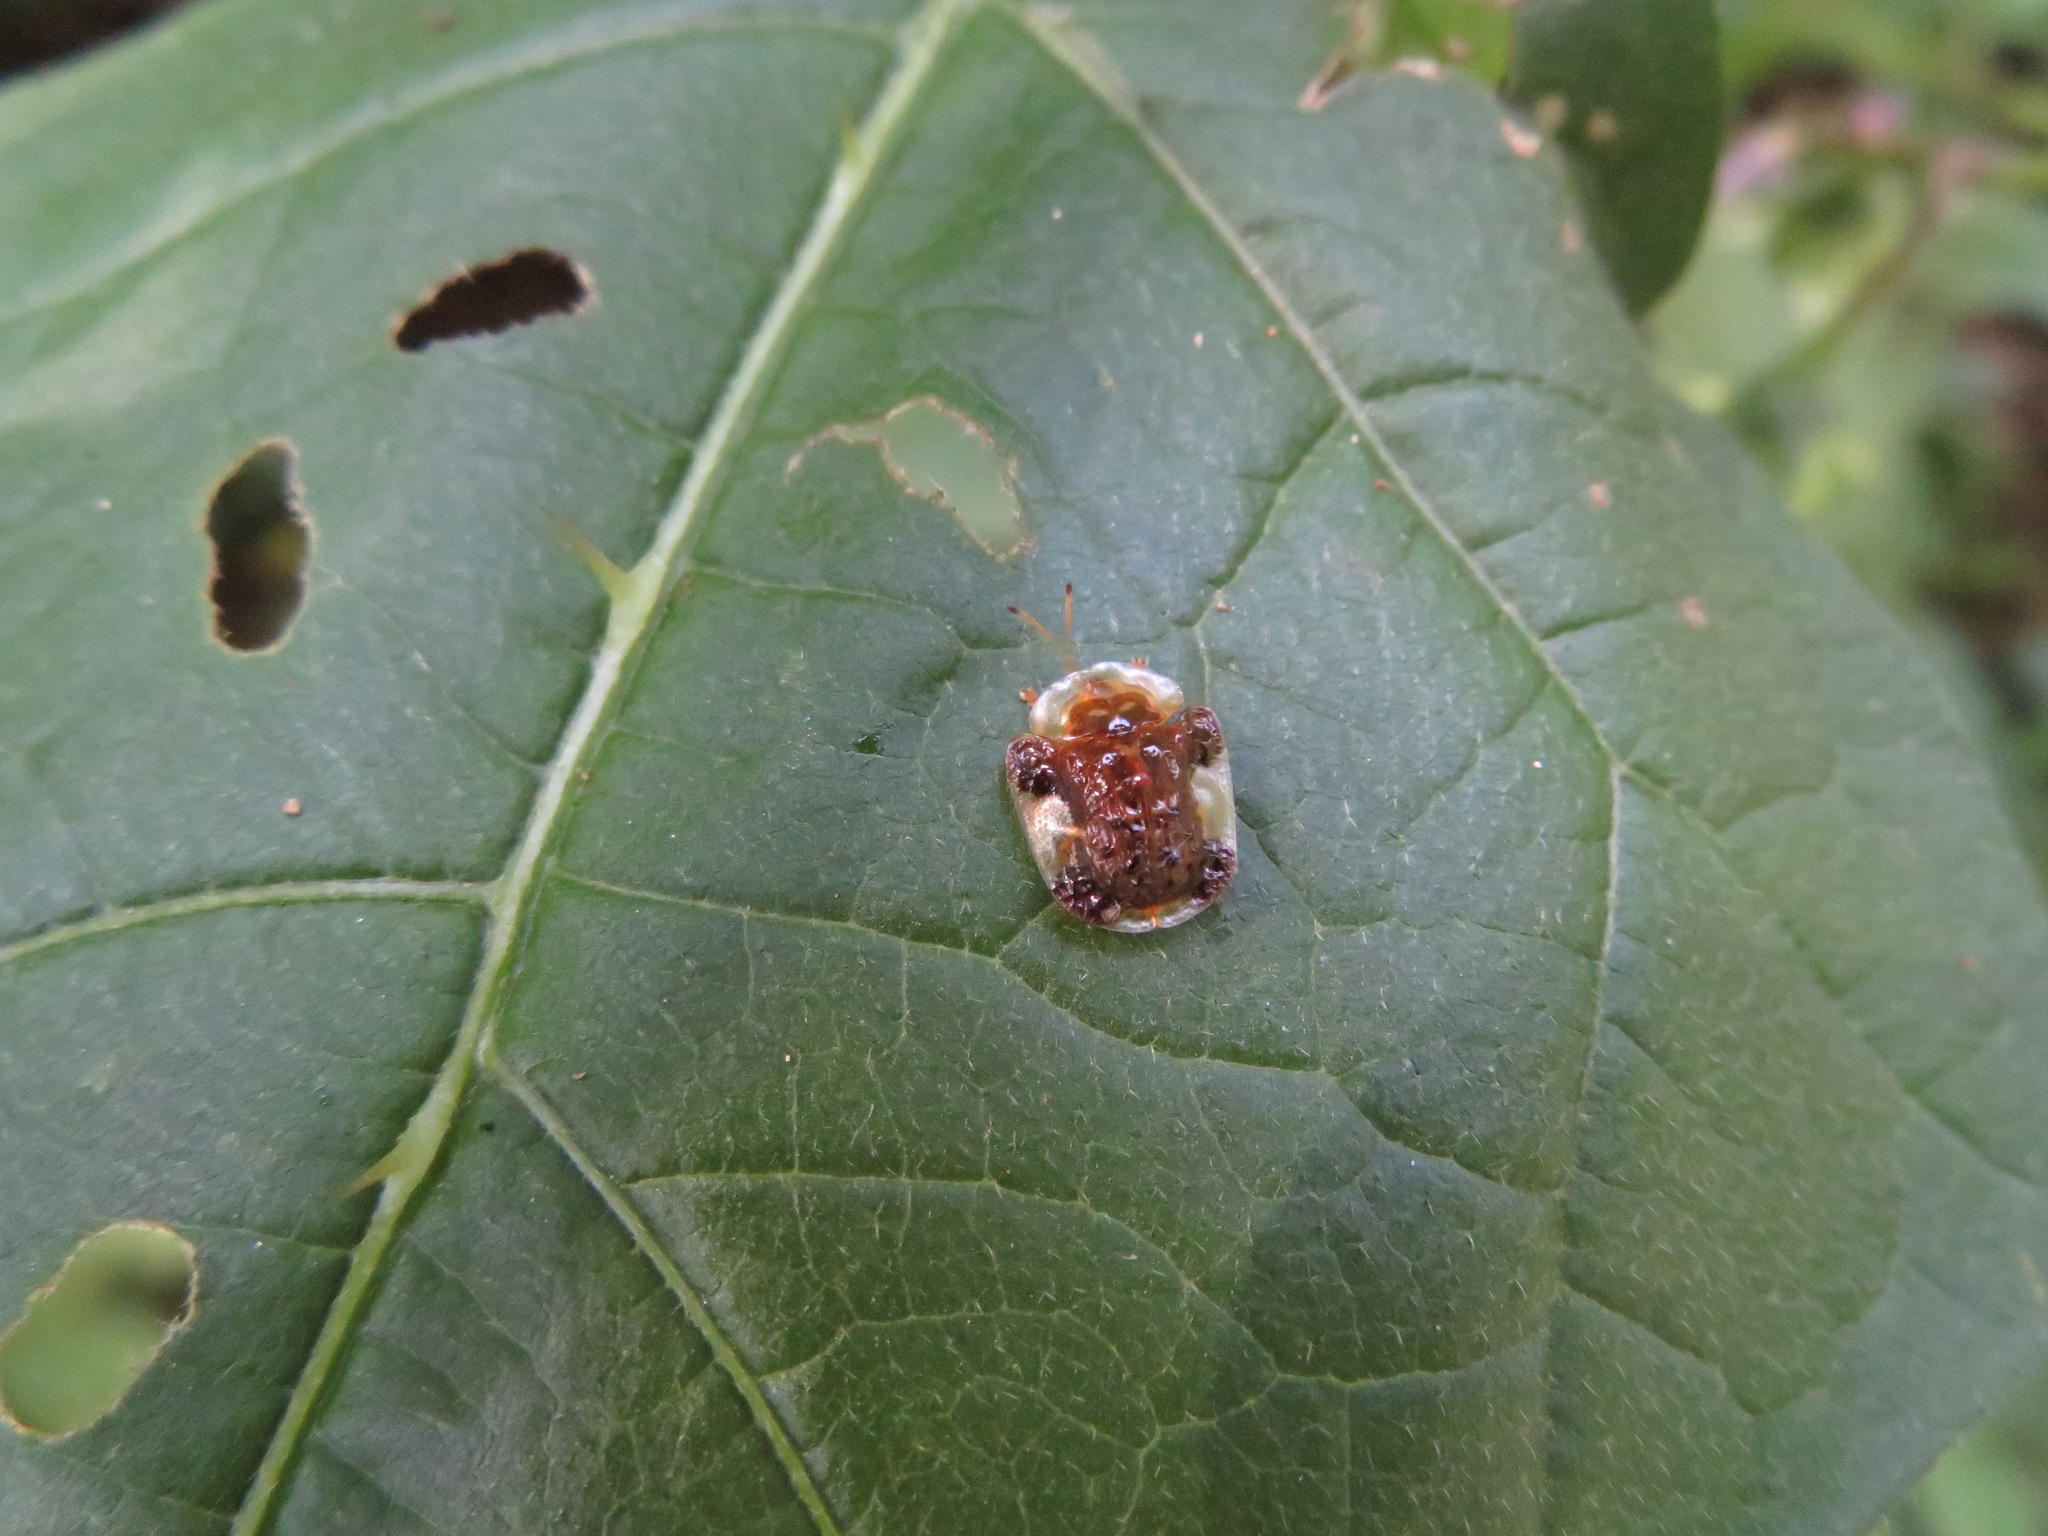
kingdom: Animalia
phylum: Arthropoda
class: Insecta
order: Coleoptera
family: Chrysomelidae
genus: Helocassis
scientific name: Helocassis clavata
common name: Clavate tortoise beetle
